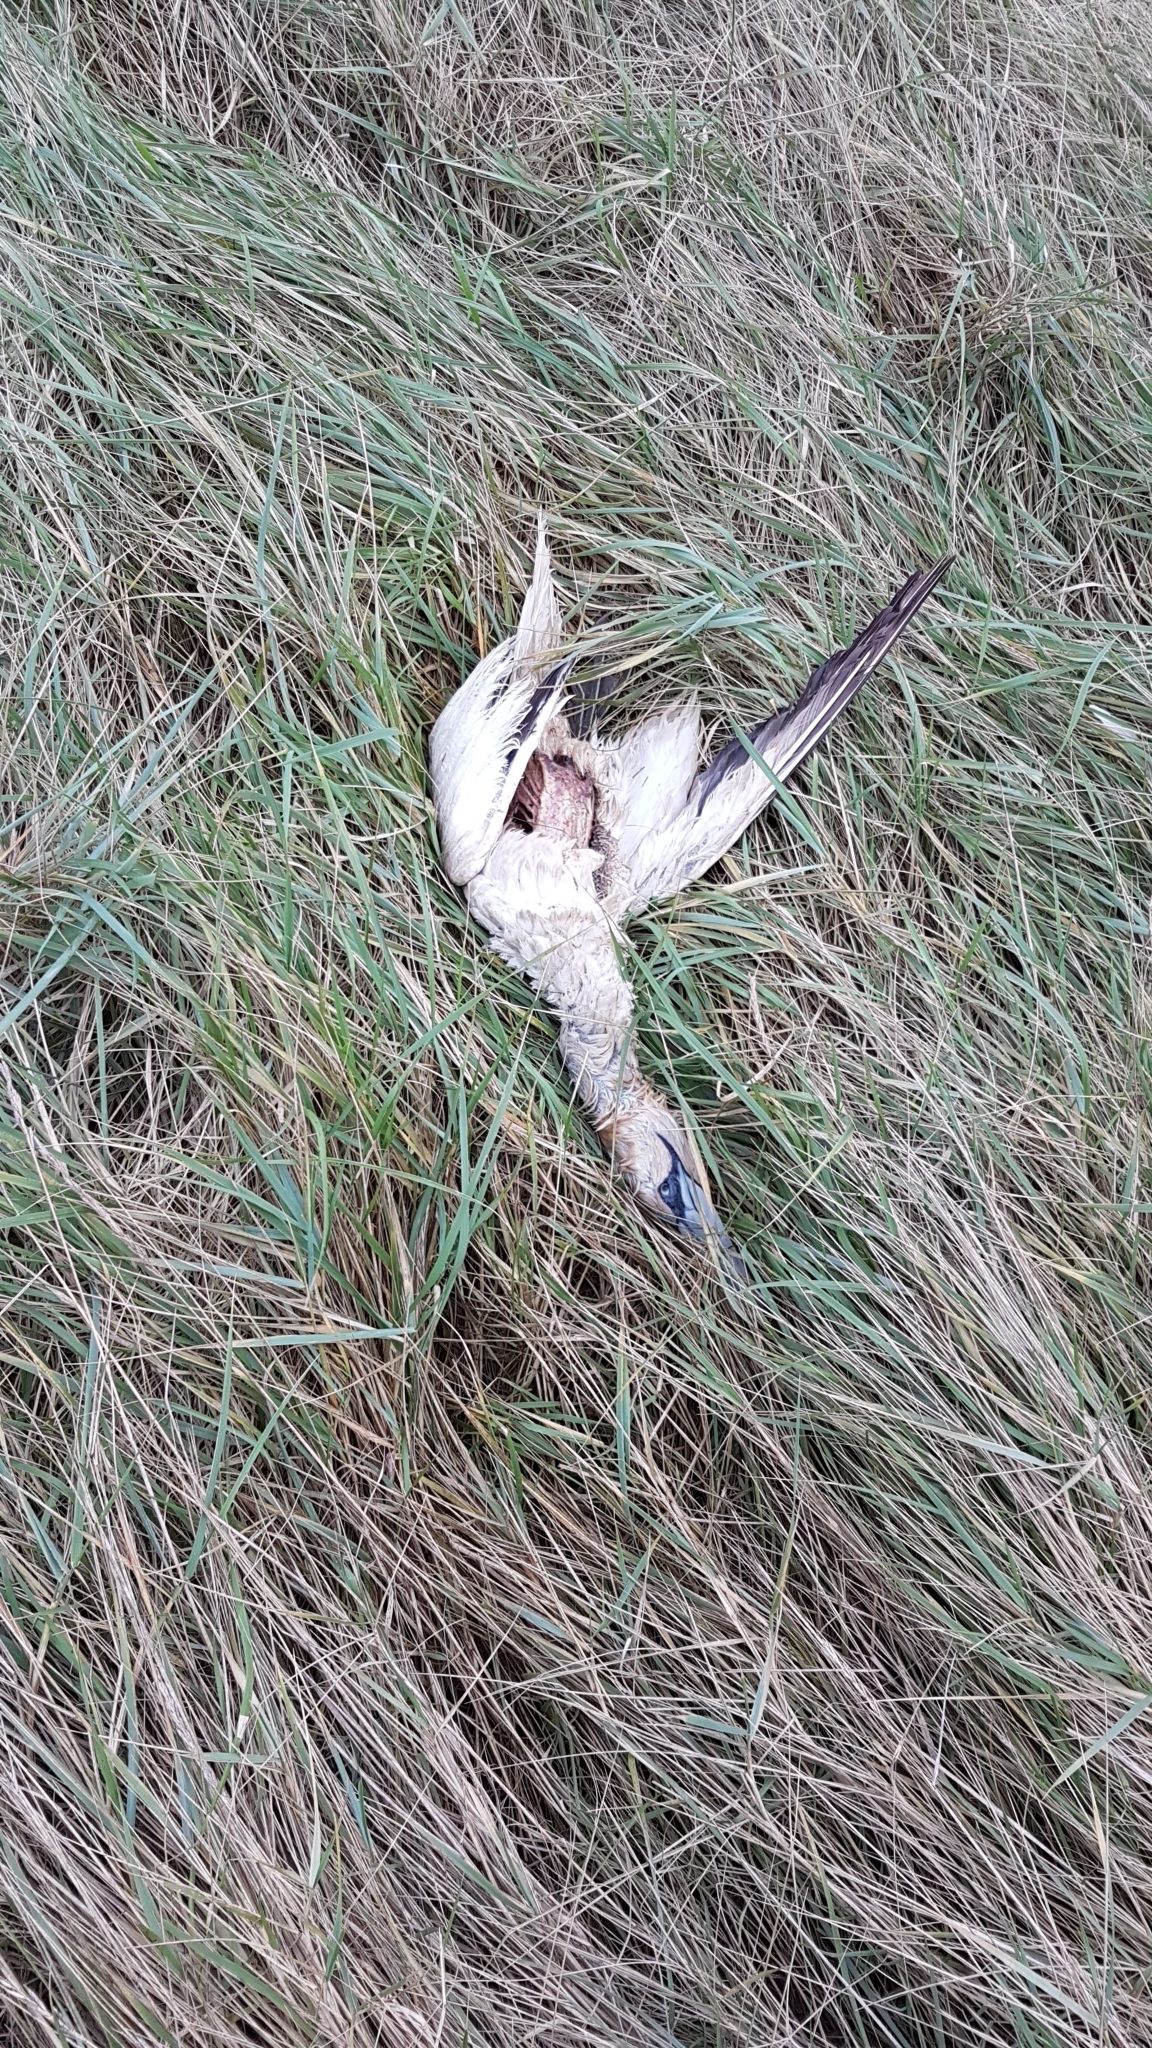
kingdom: Animalia
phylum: Chordata
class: Aves
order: Suliformes
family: Sulidae
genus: Morus
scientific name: Morus bassanus
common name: Northern gannet
